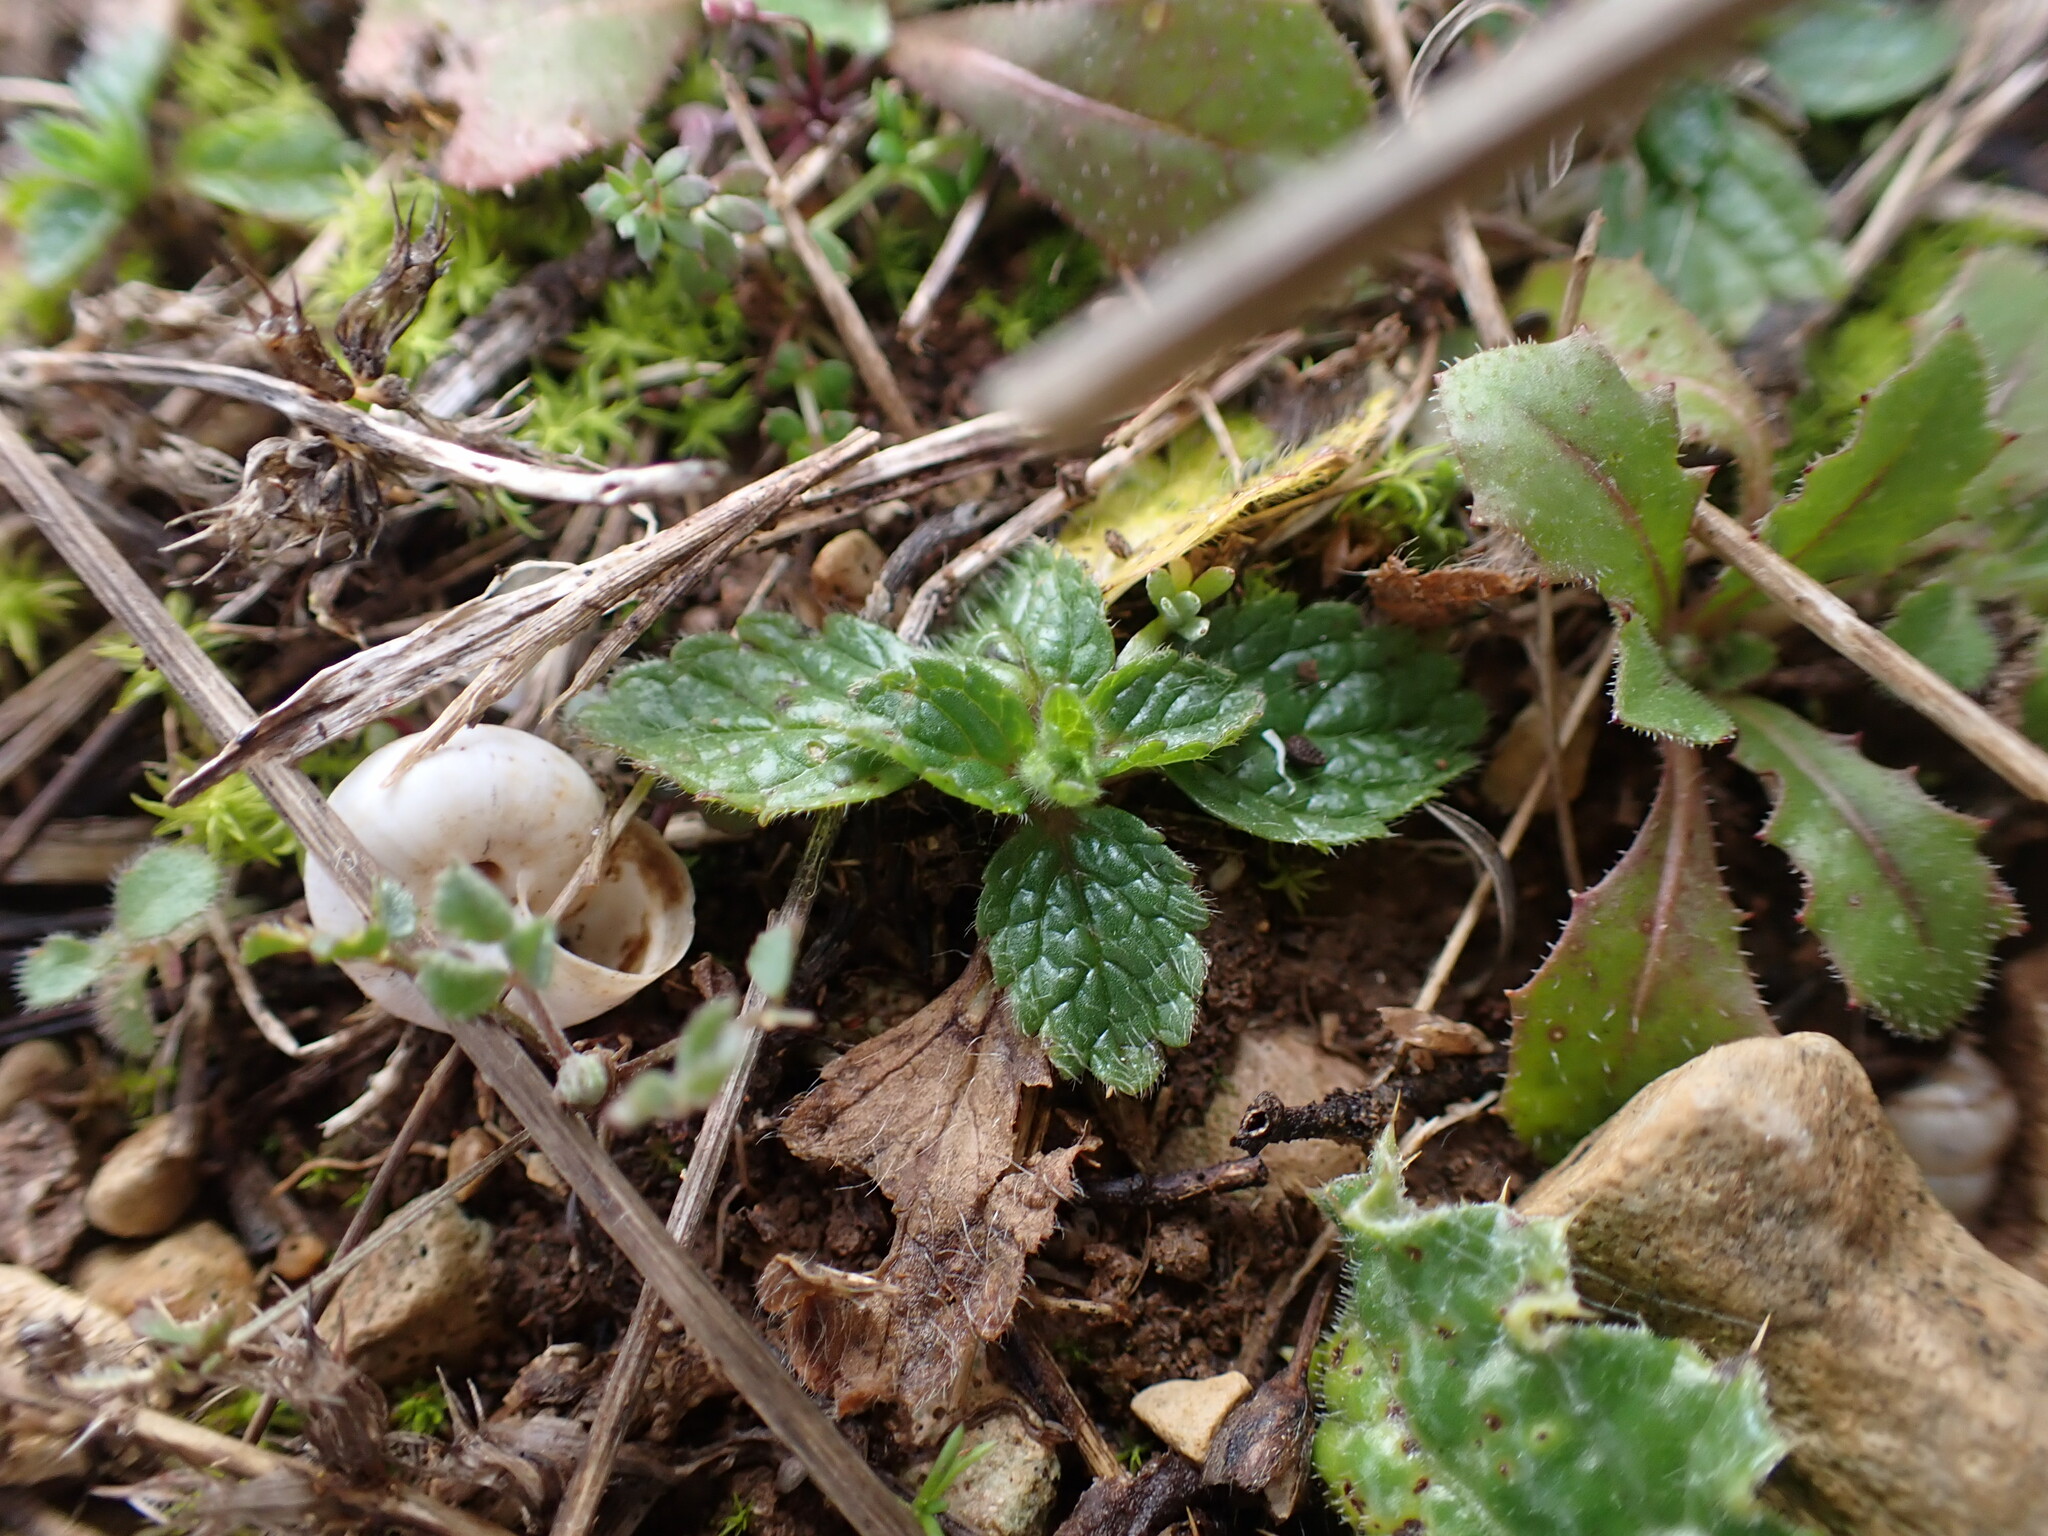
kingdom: Plantae
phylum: Tracheophyta
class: Magnoliopsida
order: Lamiales
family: Lamiaceae
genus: Sideritis
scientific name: Sideritis romana
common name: Simplebeak ironwort
